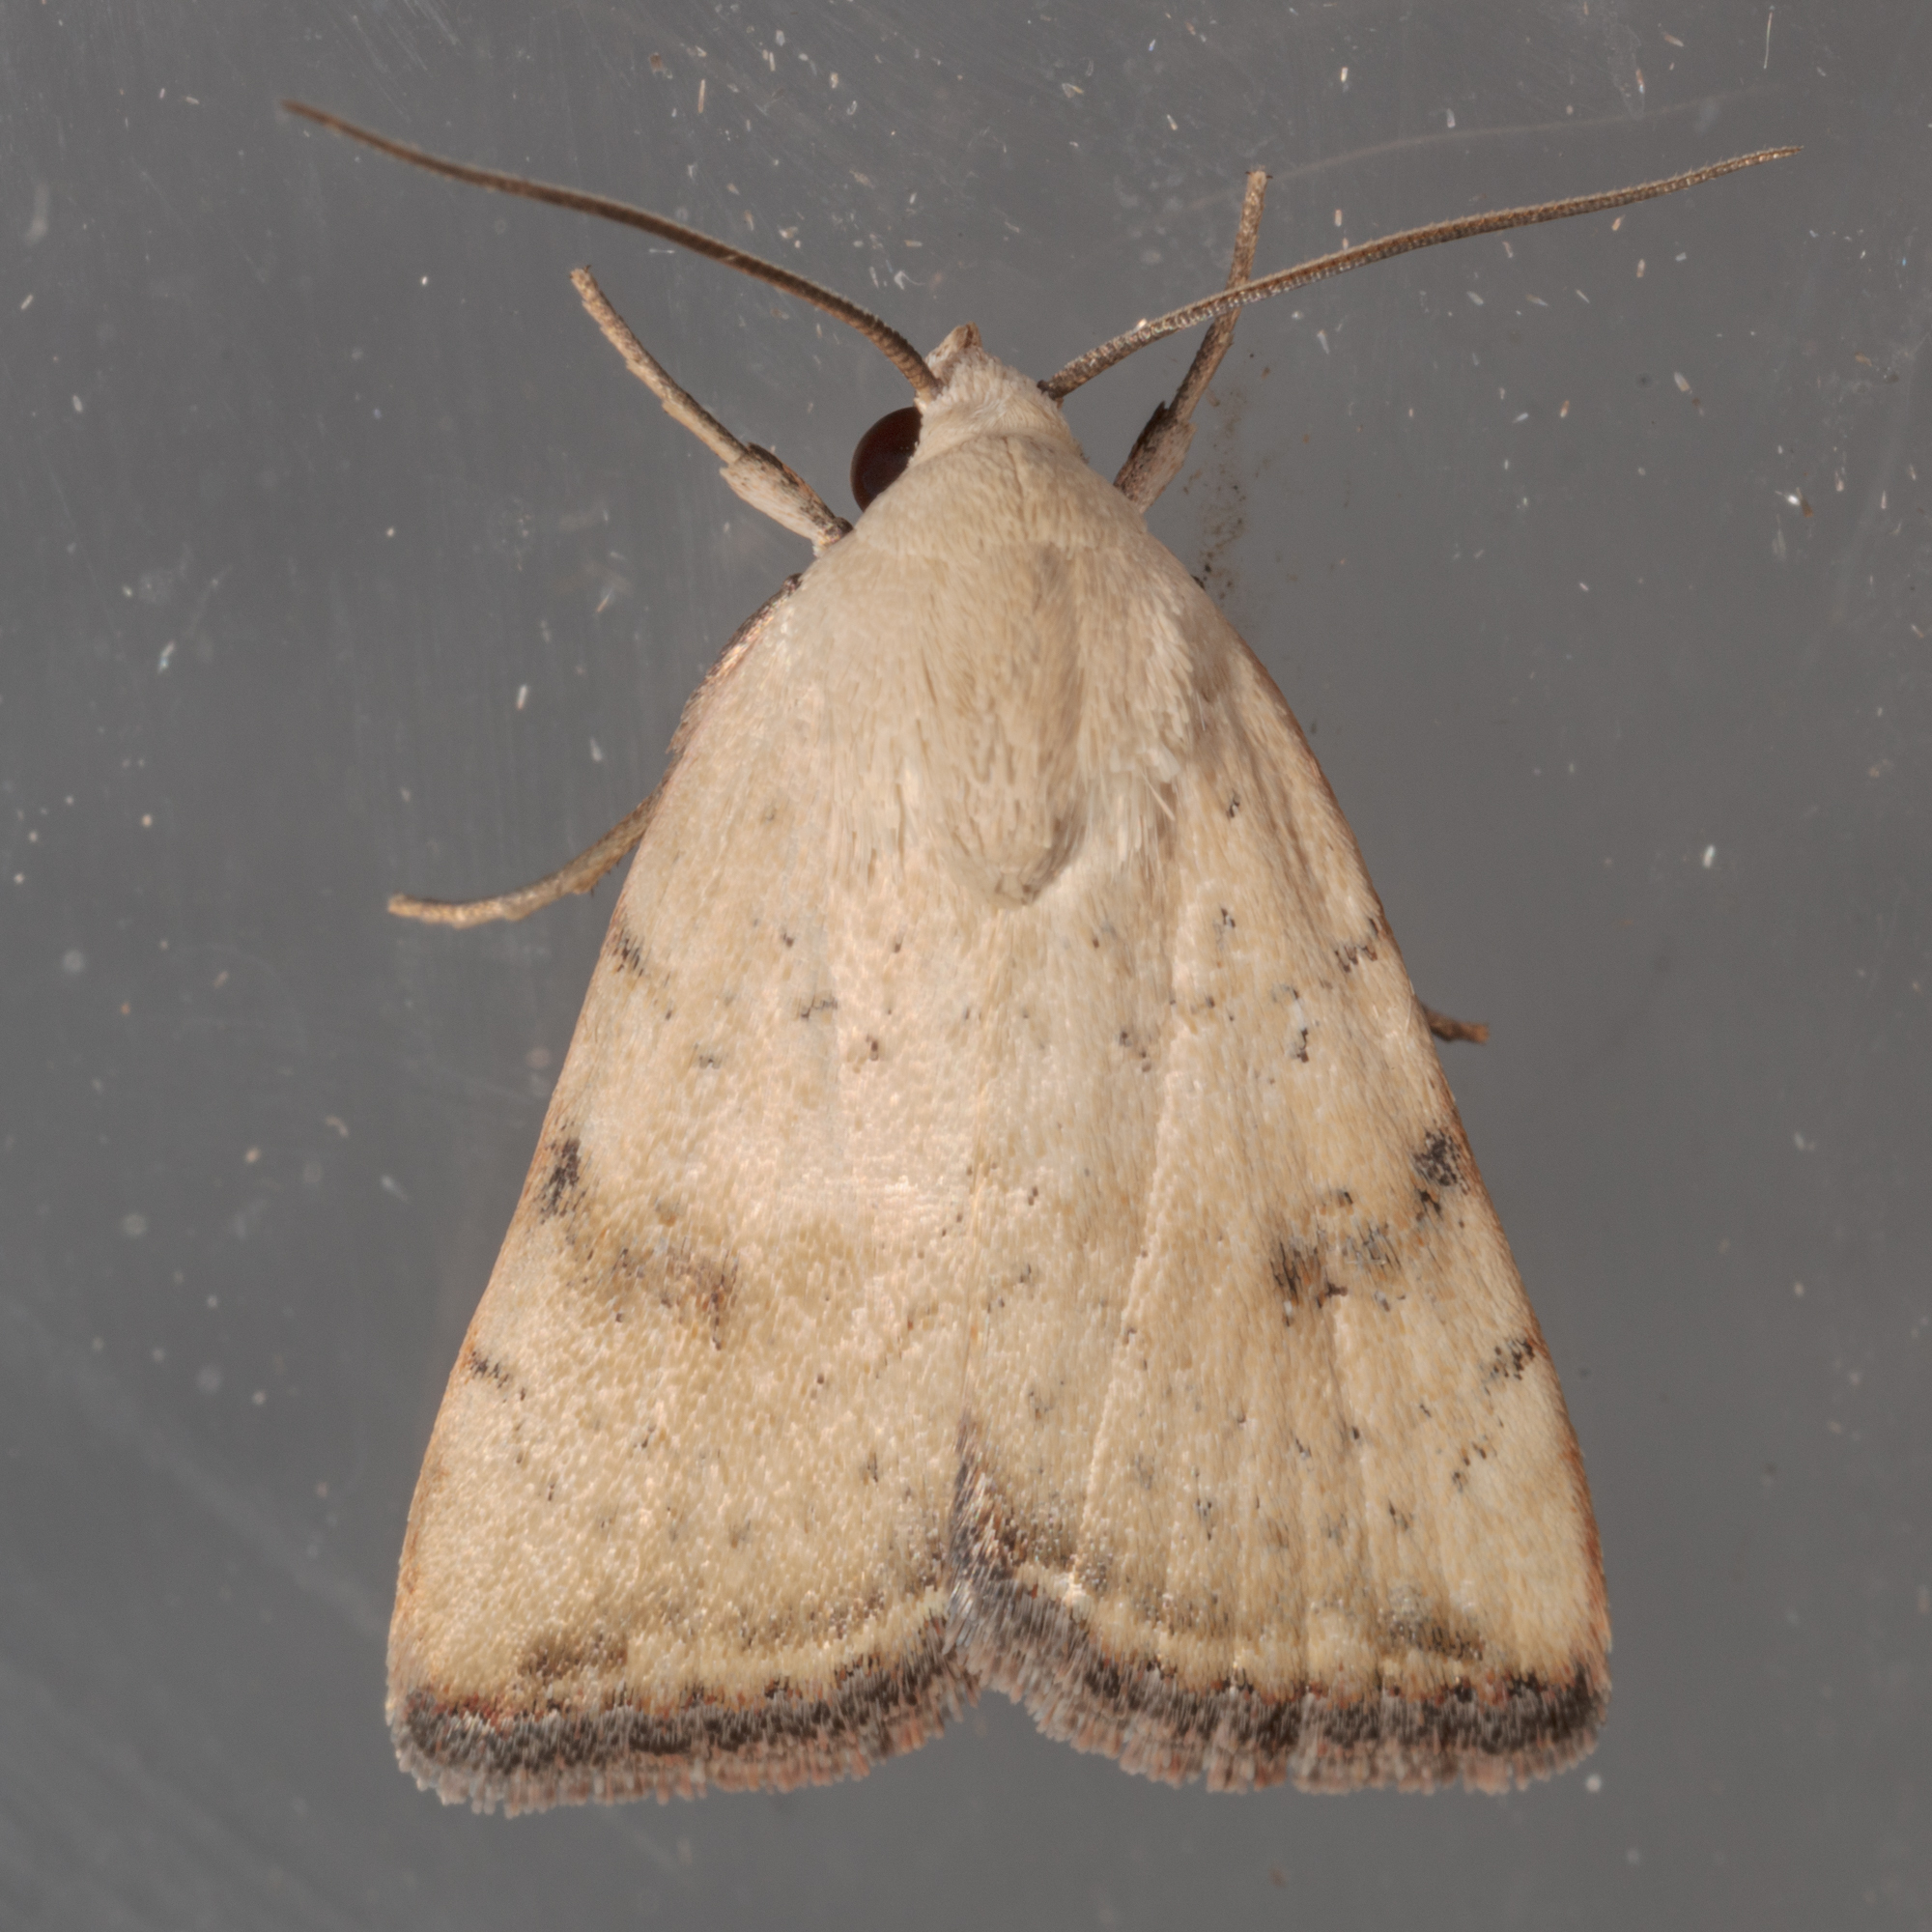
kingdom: Animalia
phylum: Arthropoda
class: Insecta
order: Lepidoptera
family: Noctuidae
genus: Micrathetis
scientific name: Micrathetis triplex
